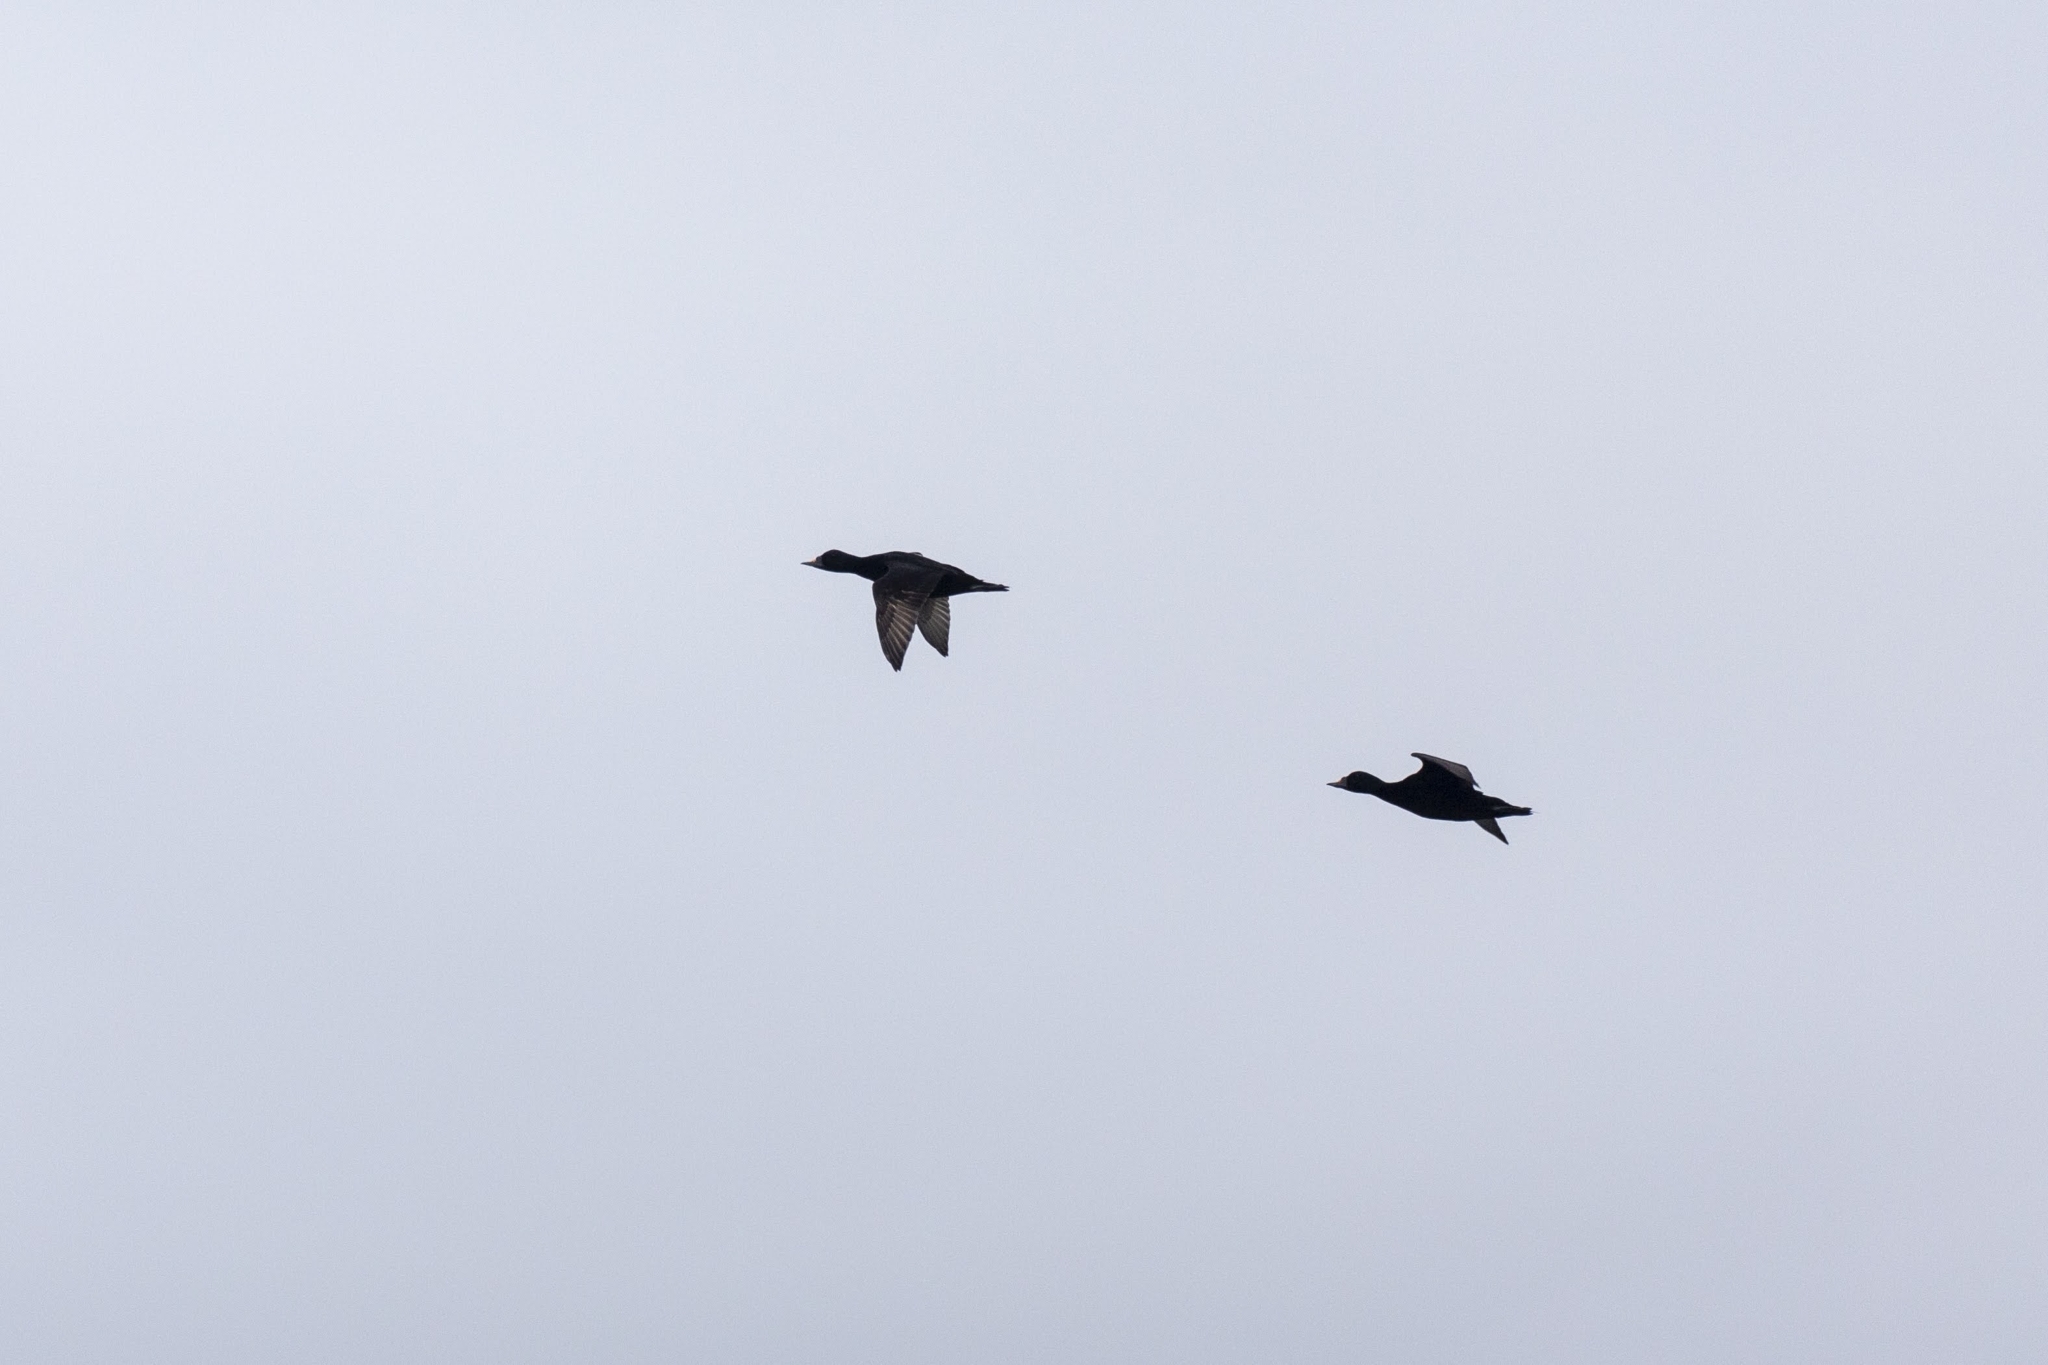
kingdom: Animalia
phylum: Chordata
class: Aves
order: Anseriformes
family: Anatidae
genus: Melanitta
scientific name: Melanitta nigra
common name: Common scoter
